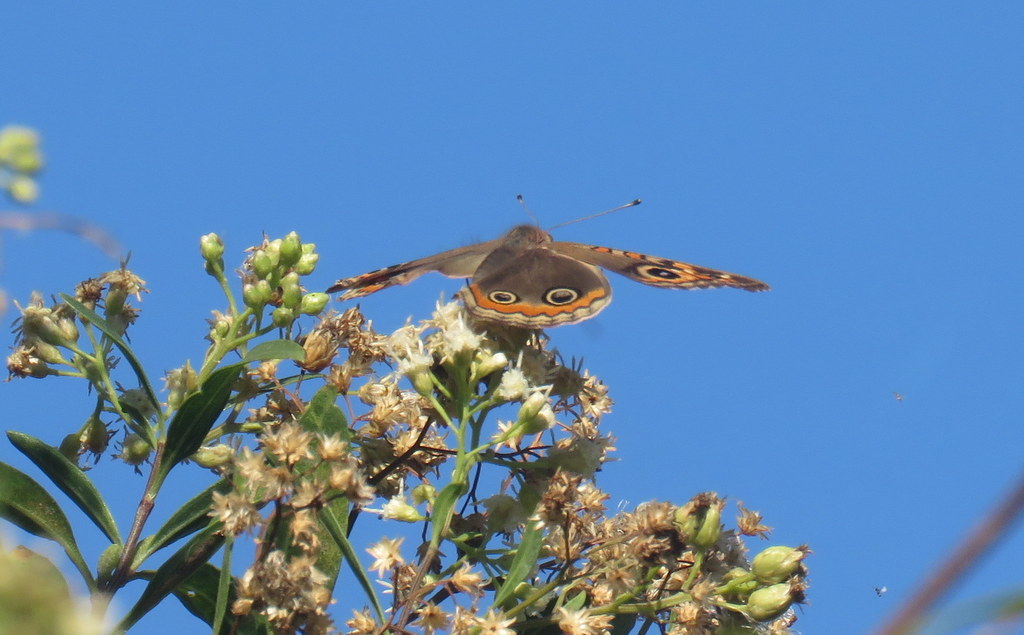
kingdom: Animalia
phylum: Arthropoda
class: Insecta
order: Lepidoptera
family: Nymphalidae
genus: Junonia
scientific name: Junonia lavinia
